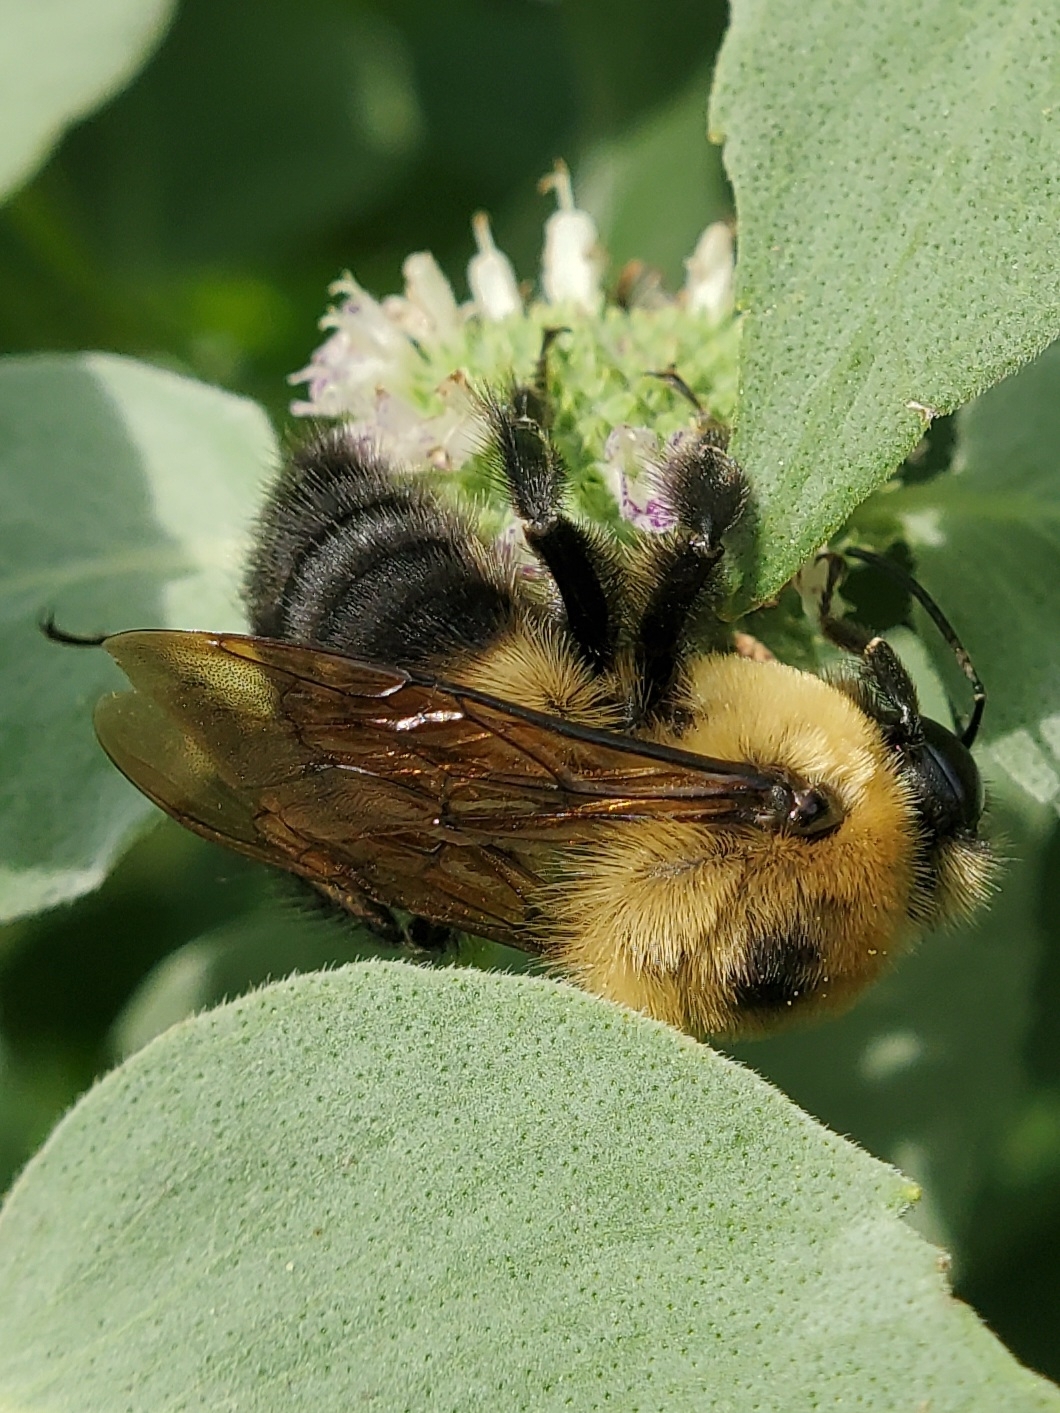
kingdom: Animalia
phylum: Arthropoda
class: Insecta
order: Hymenoptera
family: Apidae
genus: Bombus
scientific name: Bombus griseocollis
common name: Brown-belted bumble bee
